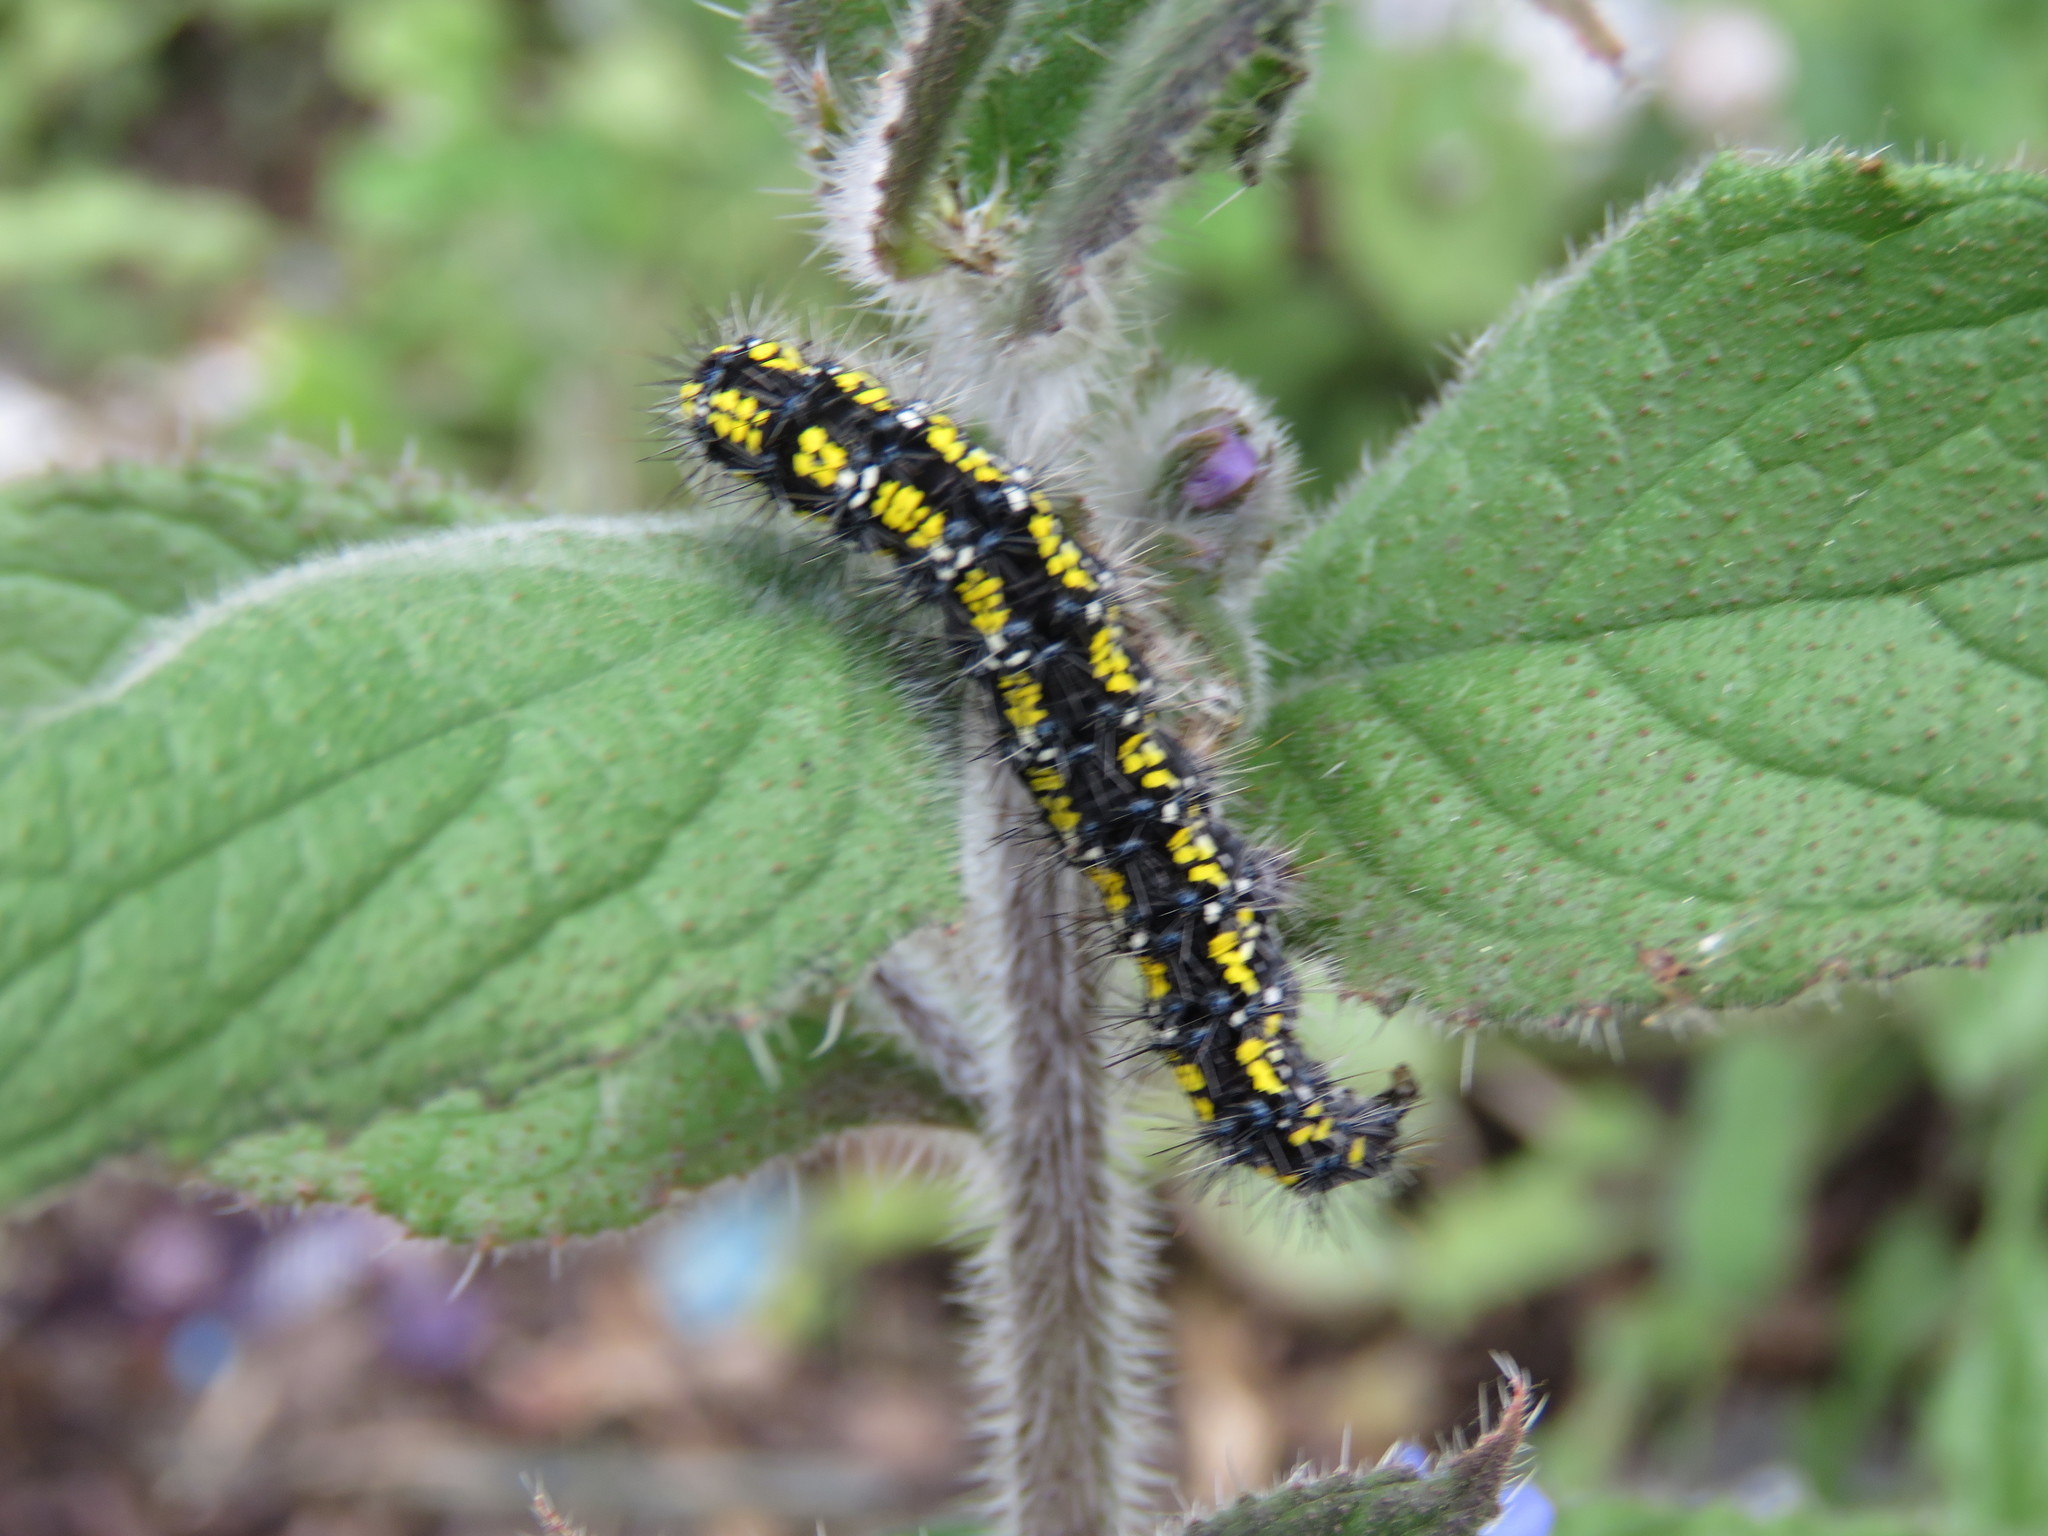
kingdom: Plantae
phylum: Tracheophyta
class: Magnoliopsida
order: Boraginales
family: Boraginaceae
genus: Pentaglottis
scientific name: Pentaglottis sempervirens
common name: Green alkanet
